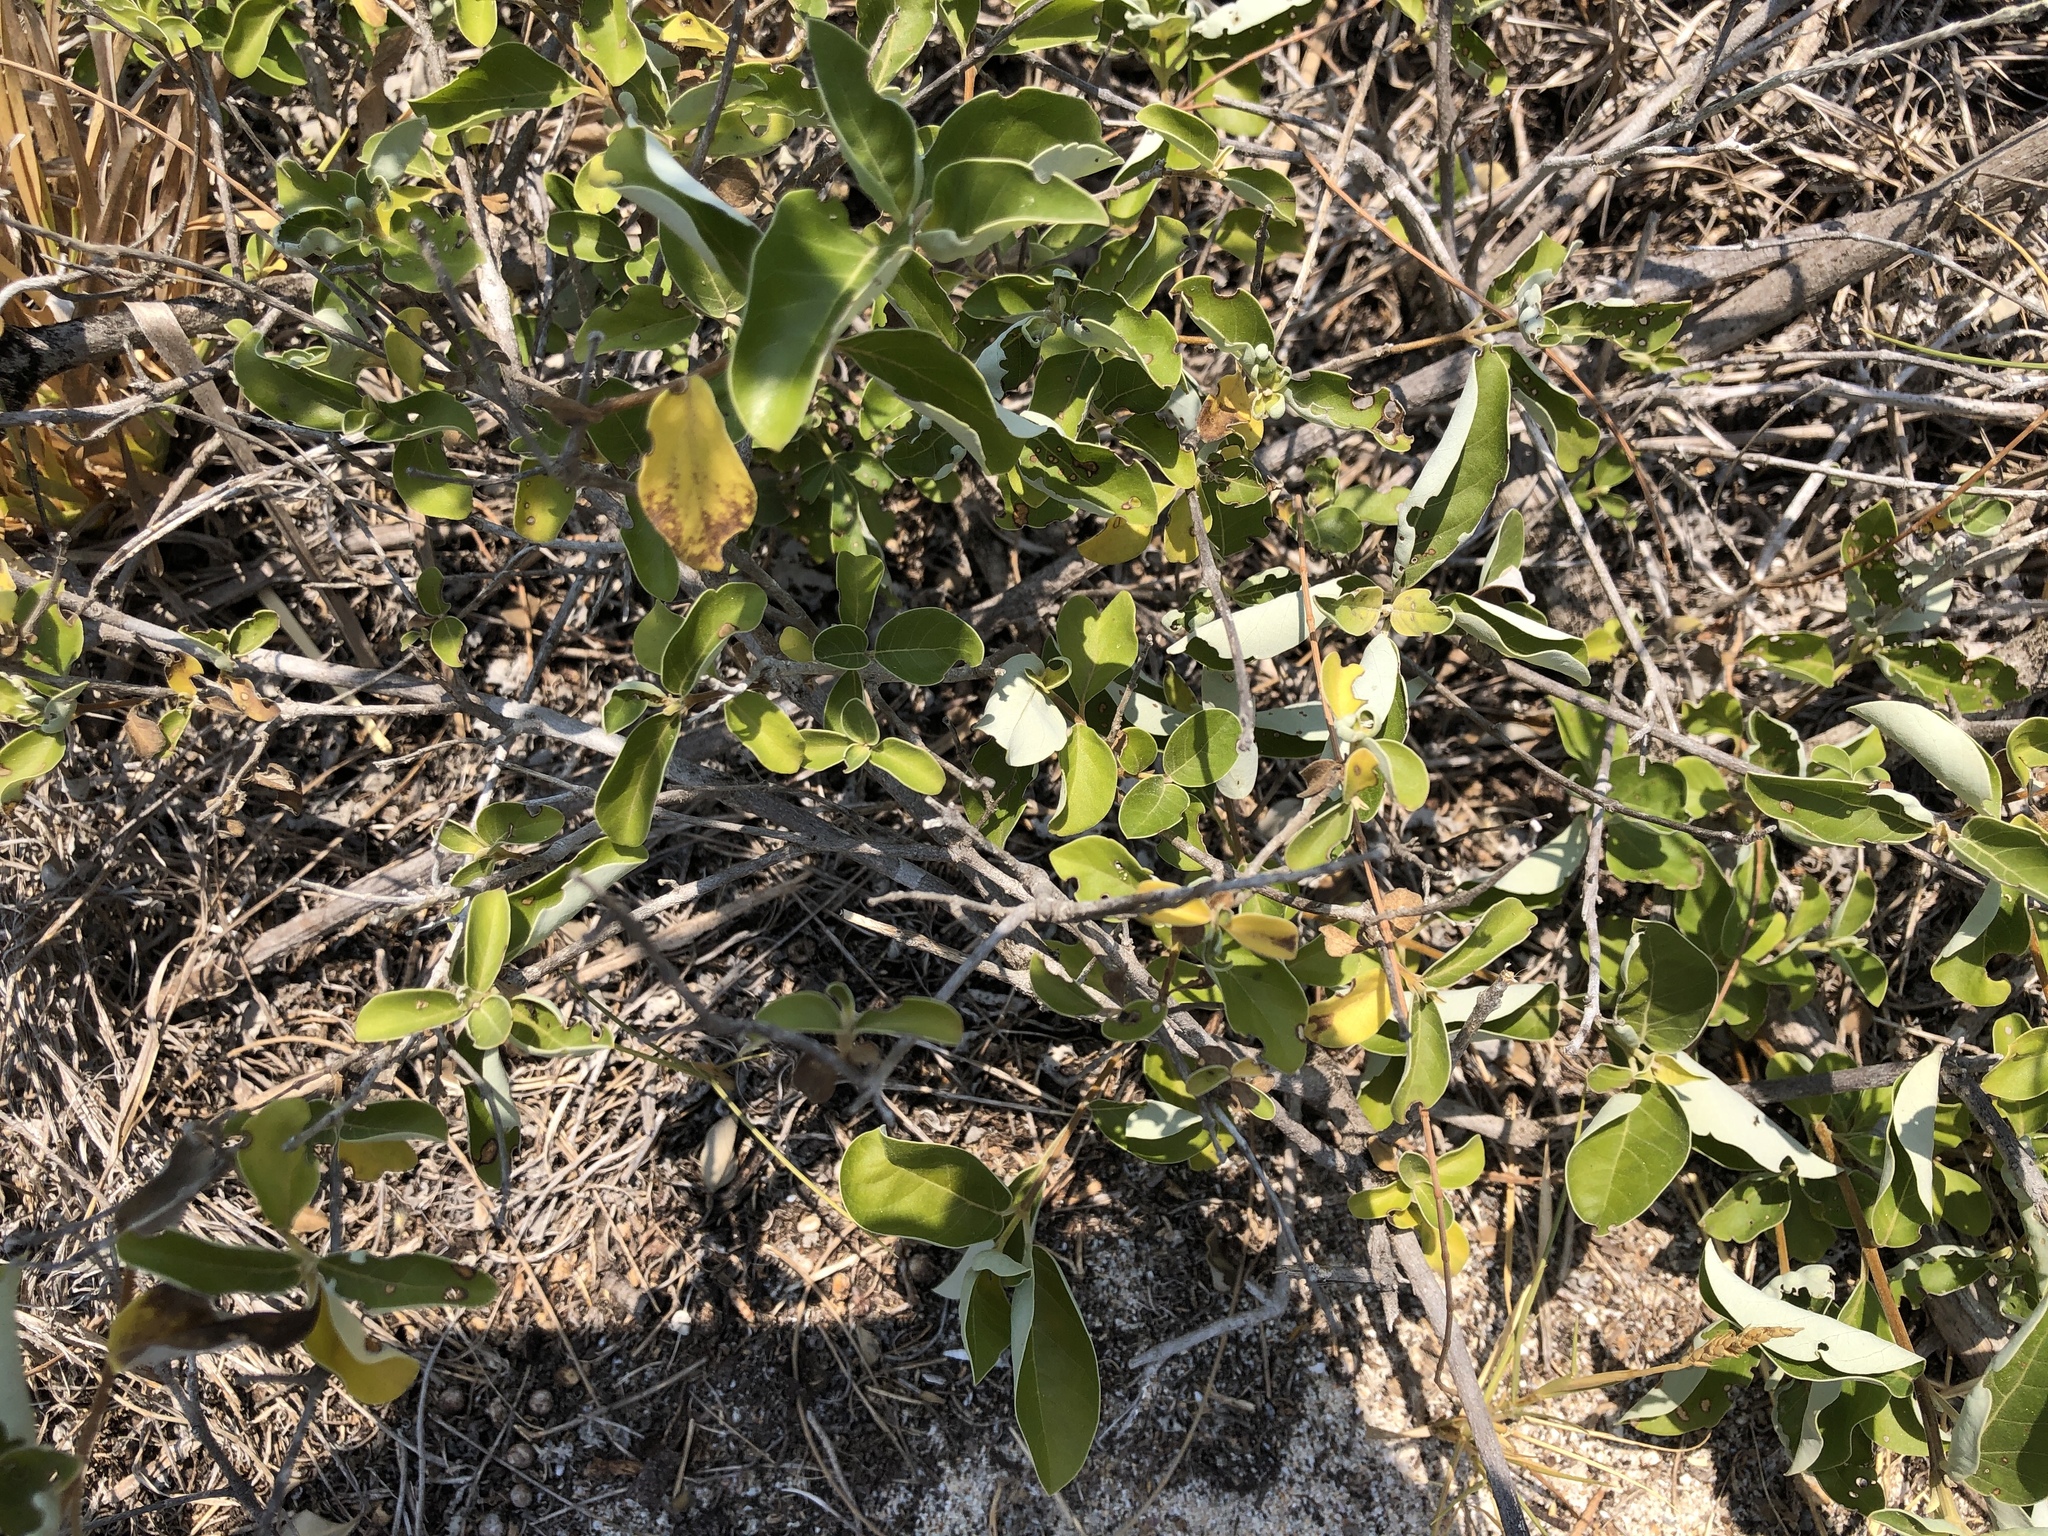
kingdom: Plantae
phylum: Tracheophyta
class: Magnoliopsida
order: Lamiales
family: Lamiaceae
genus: Vitex
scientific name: Vitex rotundifolia
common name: Beach vitex
